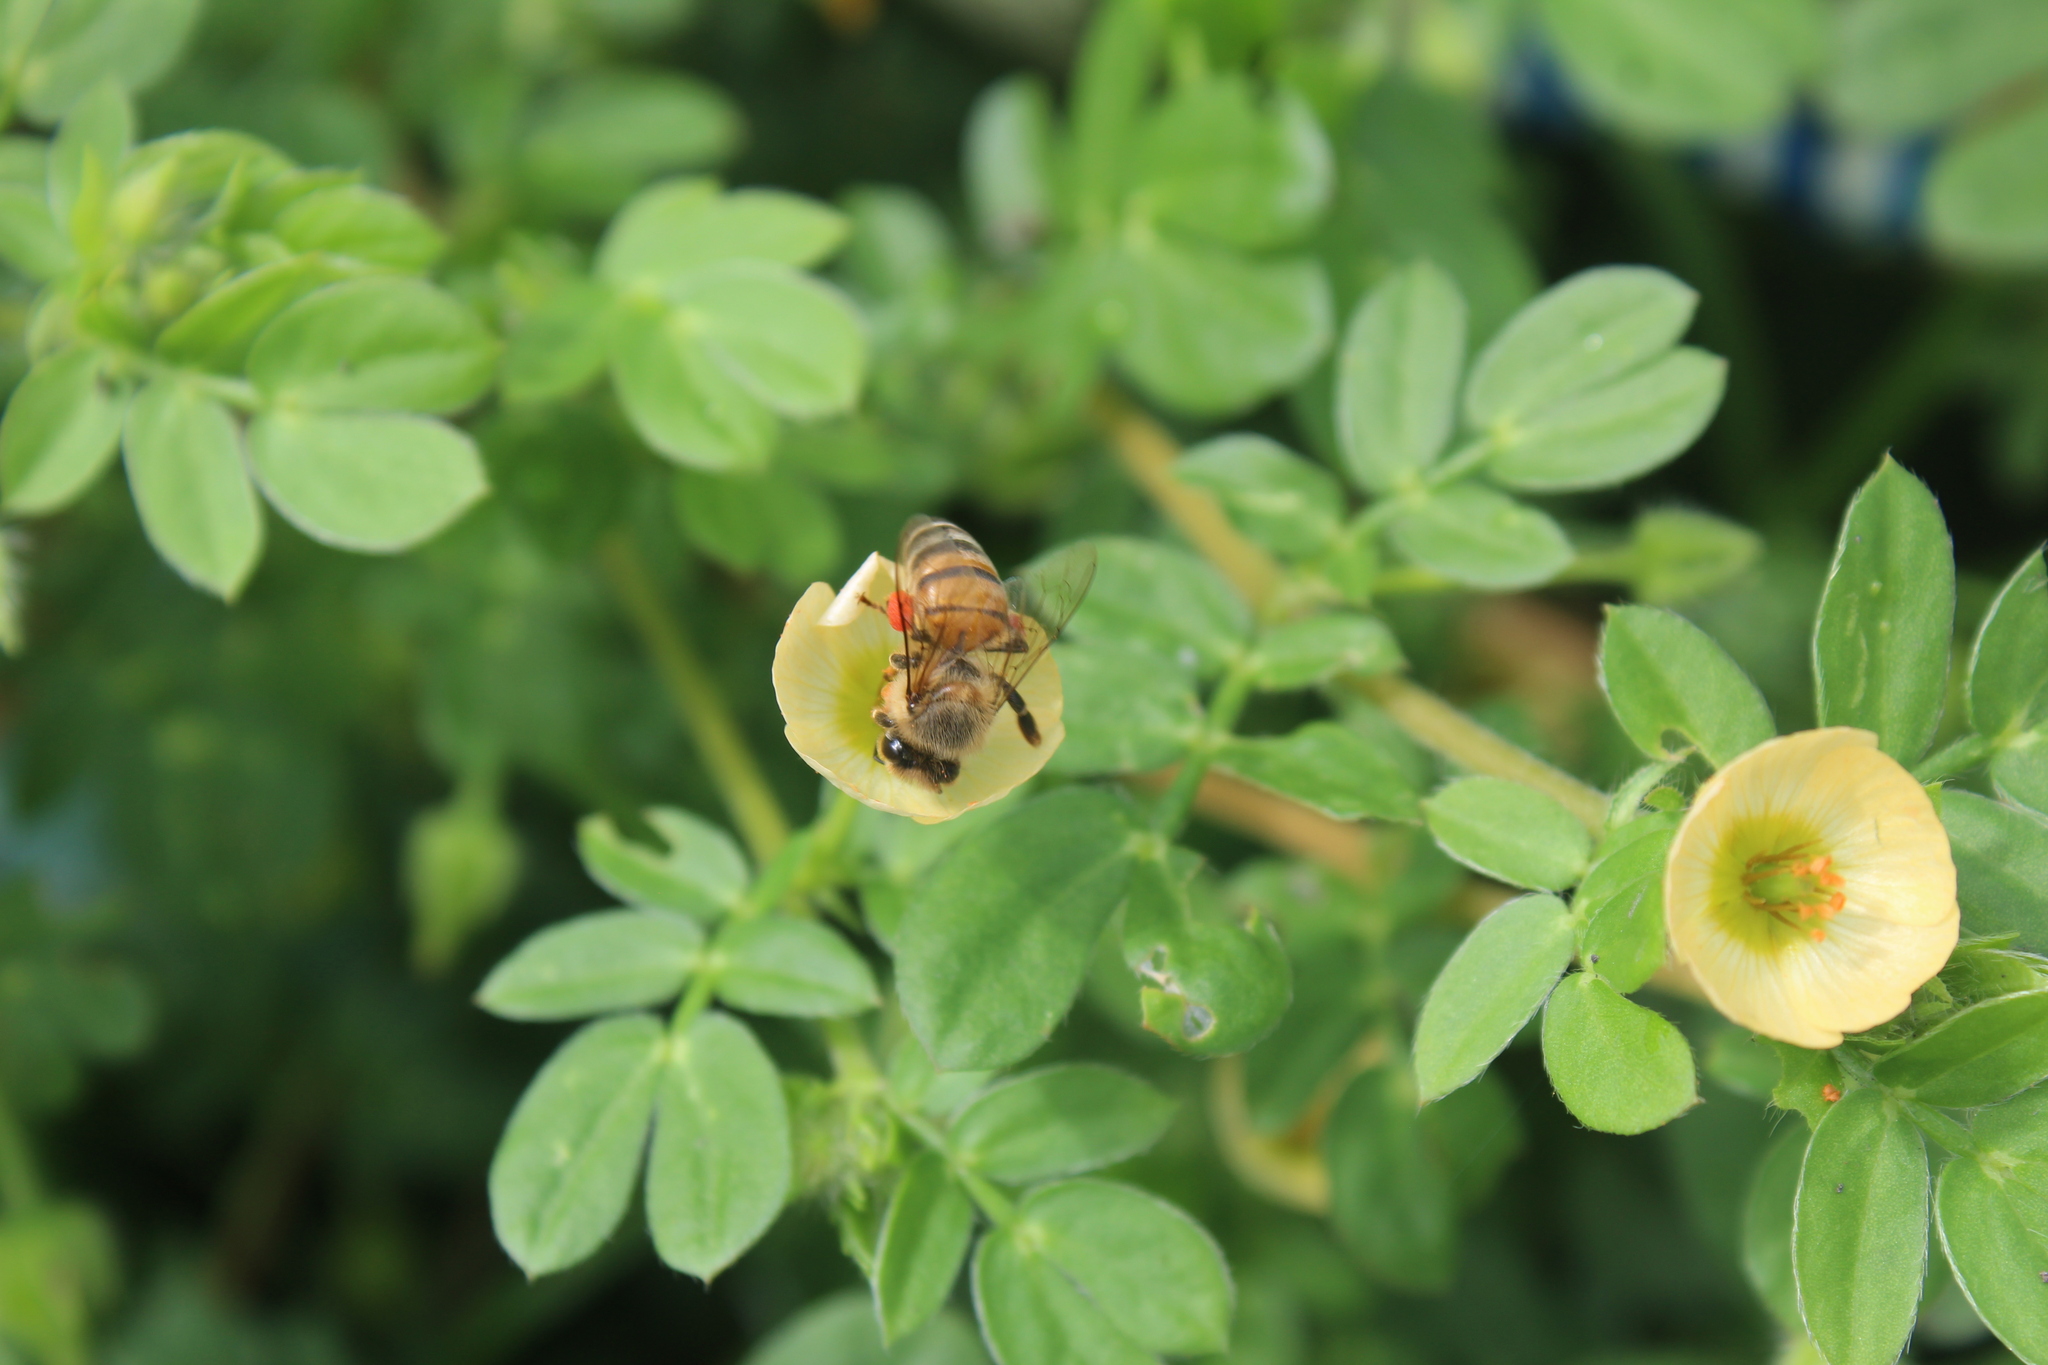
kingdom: Animalia
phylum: Arthropoda
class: Insecta
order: Hymenoptera
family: Apidae
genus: Apis
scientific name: Apis mellifera
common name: Honey bee
